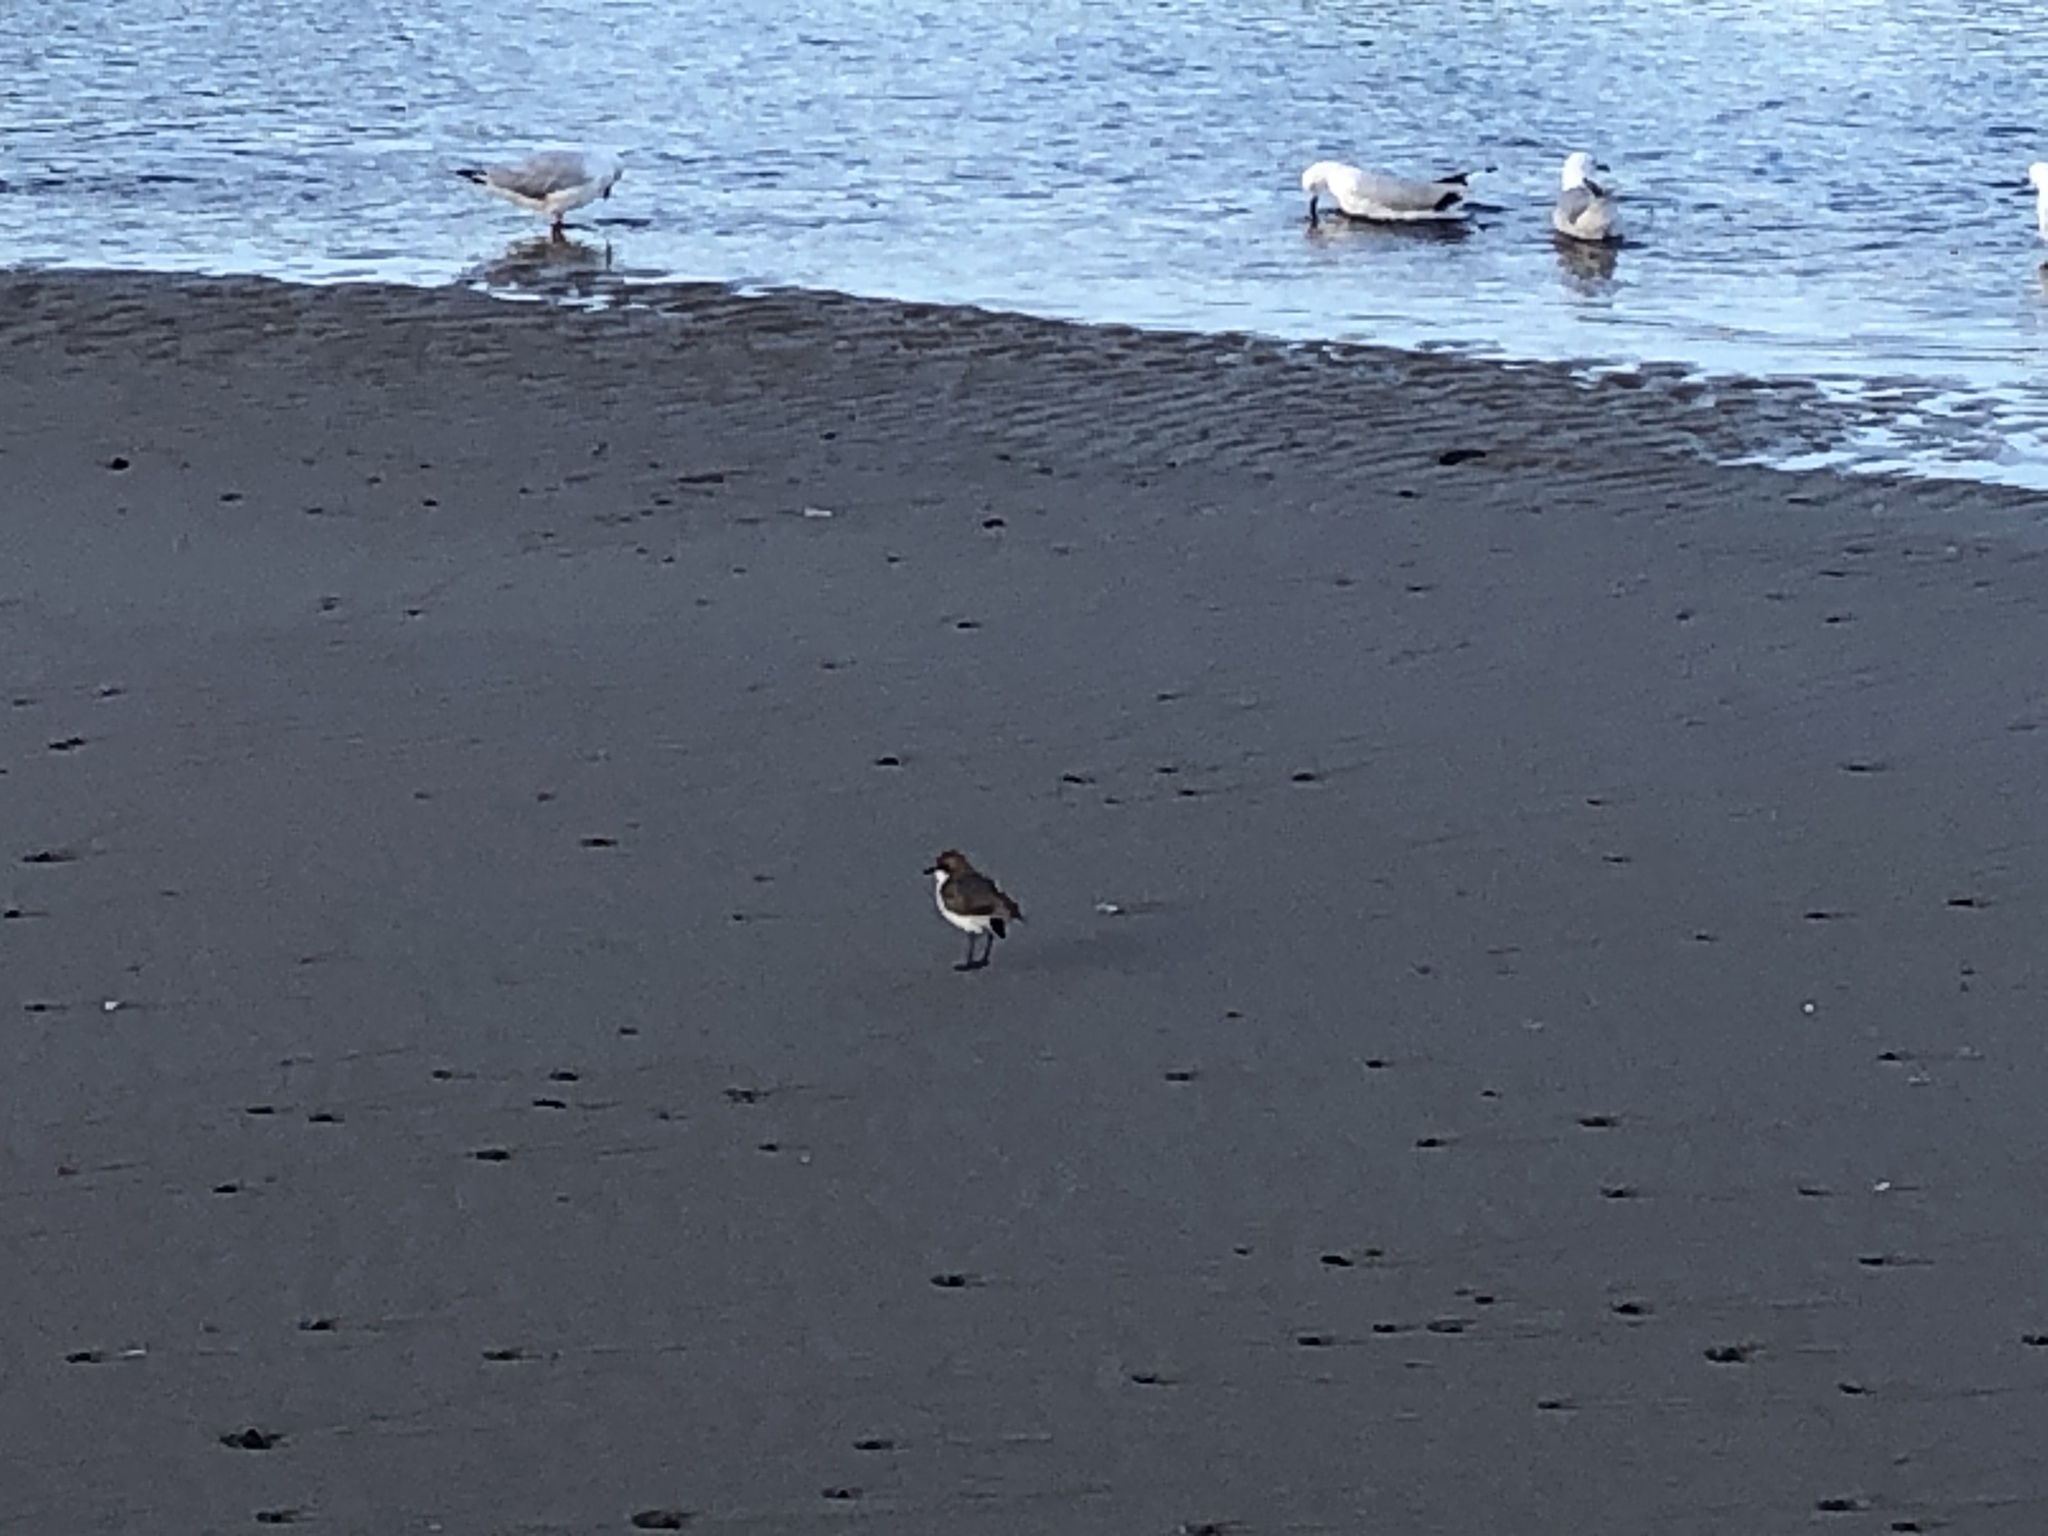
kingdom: Animalia
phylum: Chordata
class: Aves
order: Charadriiformes
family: Charadriidae
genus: Anarhynchus
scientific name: Anarhynchus
